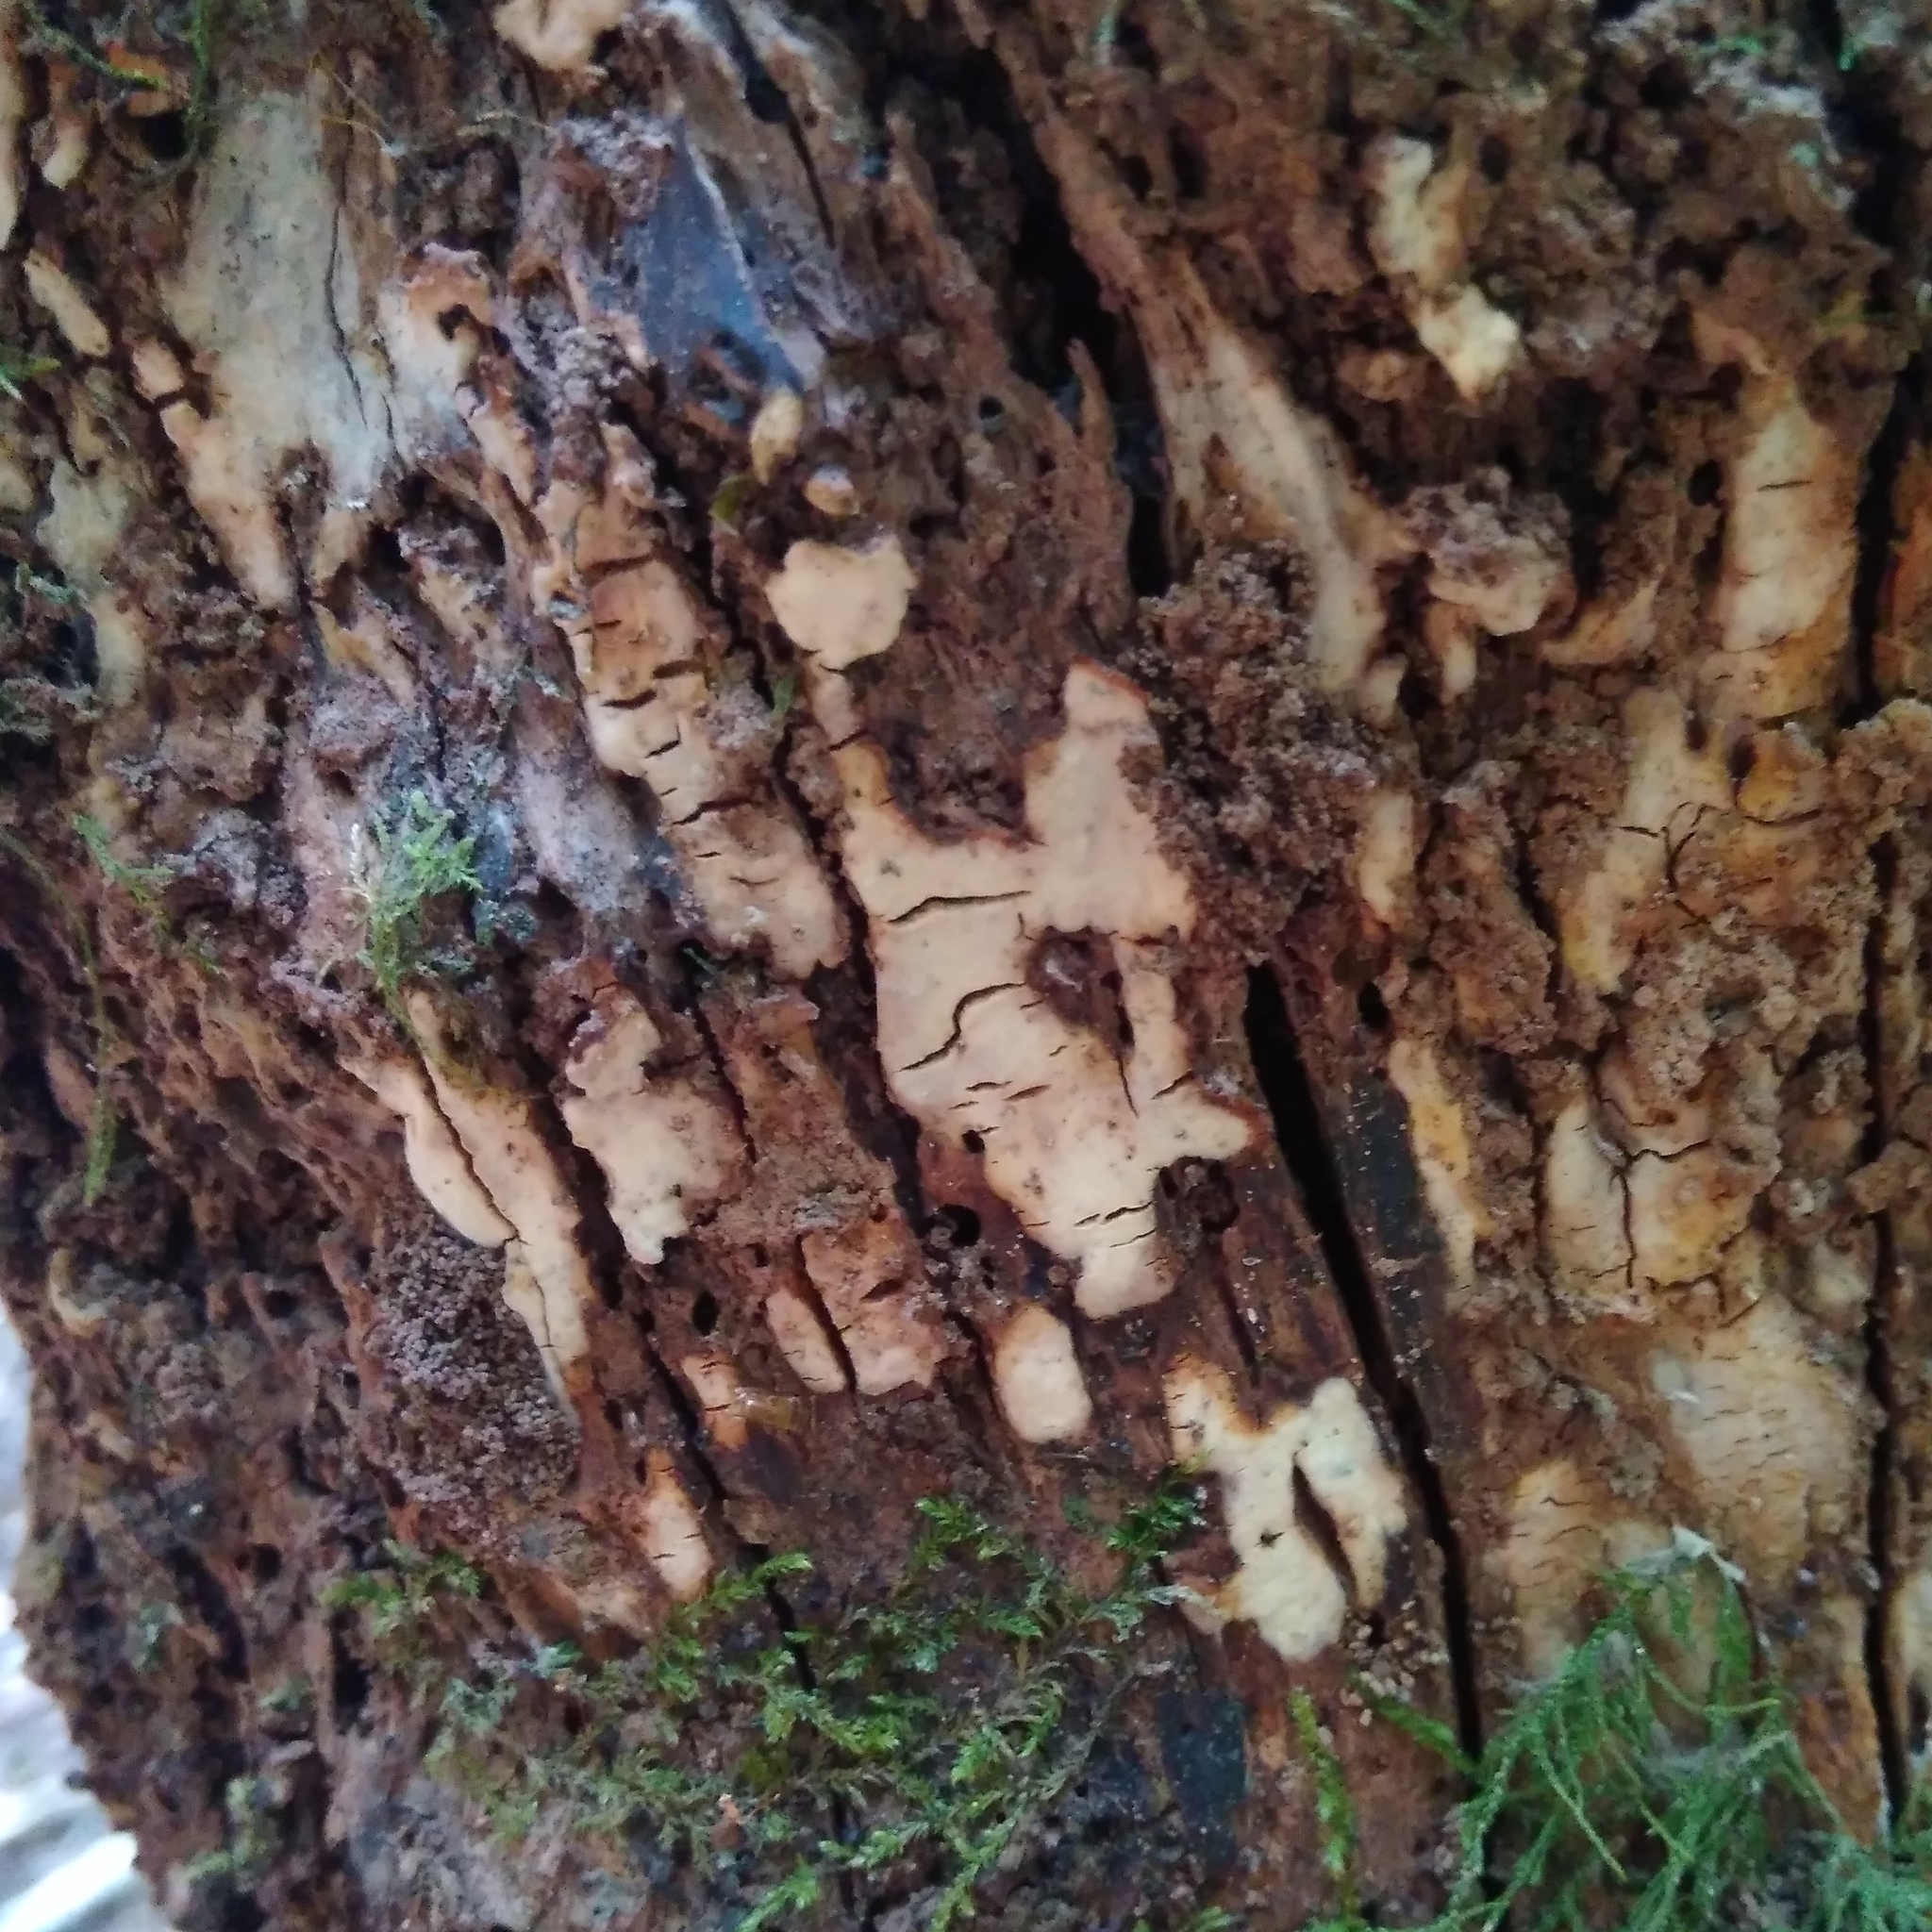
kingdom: Fungi
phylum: Basidiomycota
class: Agaricomycetes
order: Russulales
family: Stereaceae
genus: Gloeocystidiellum
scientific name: Gloeocystidiellum rajchenbergii
